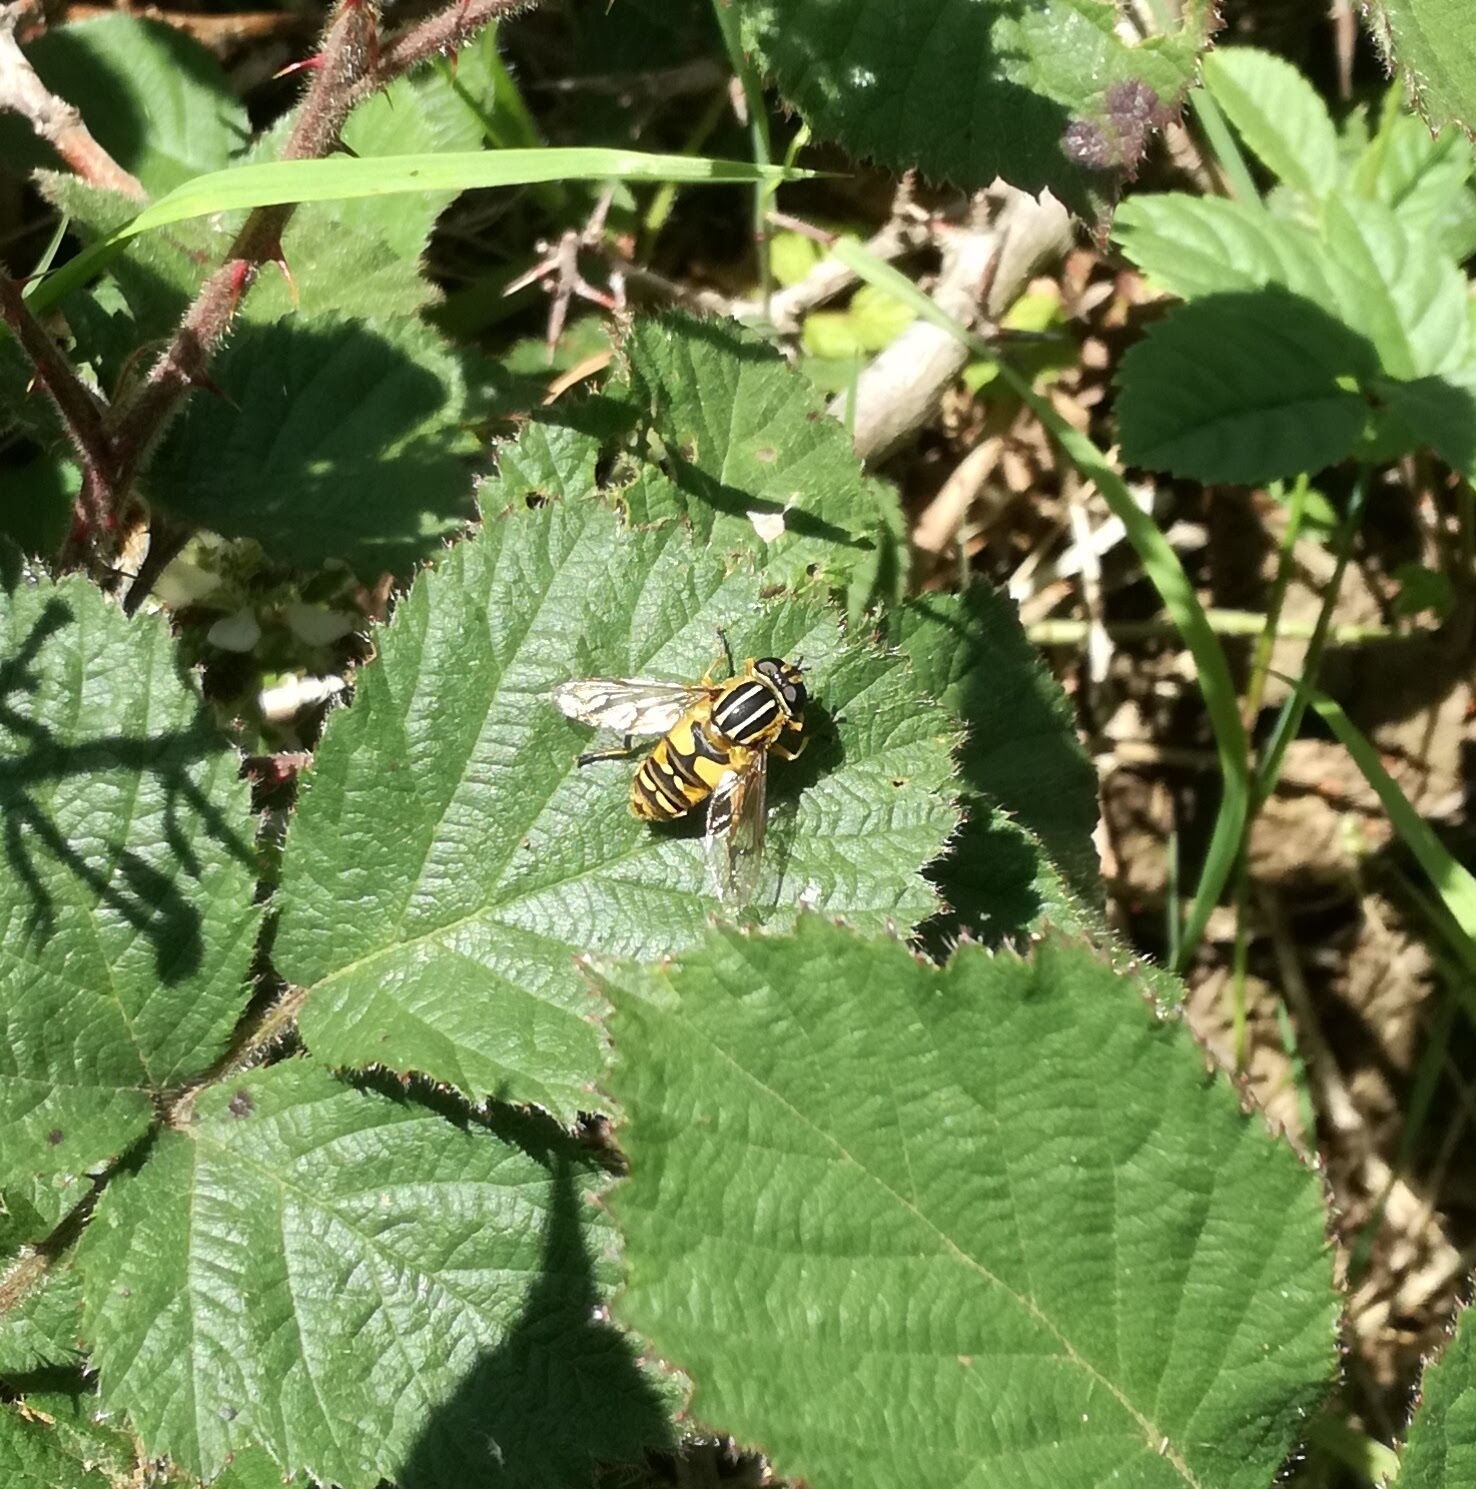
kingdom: Animalia
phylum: Arthropoda
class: Insecta
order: Diptera
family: Syrphidae
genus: Helophilus
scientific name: Helophilus pendulus
